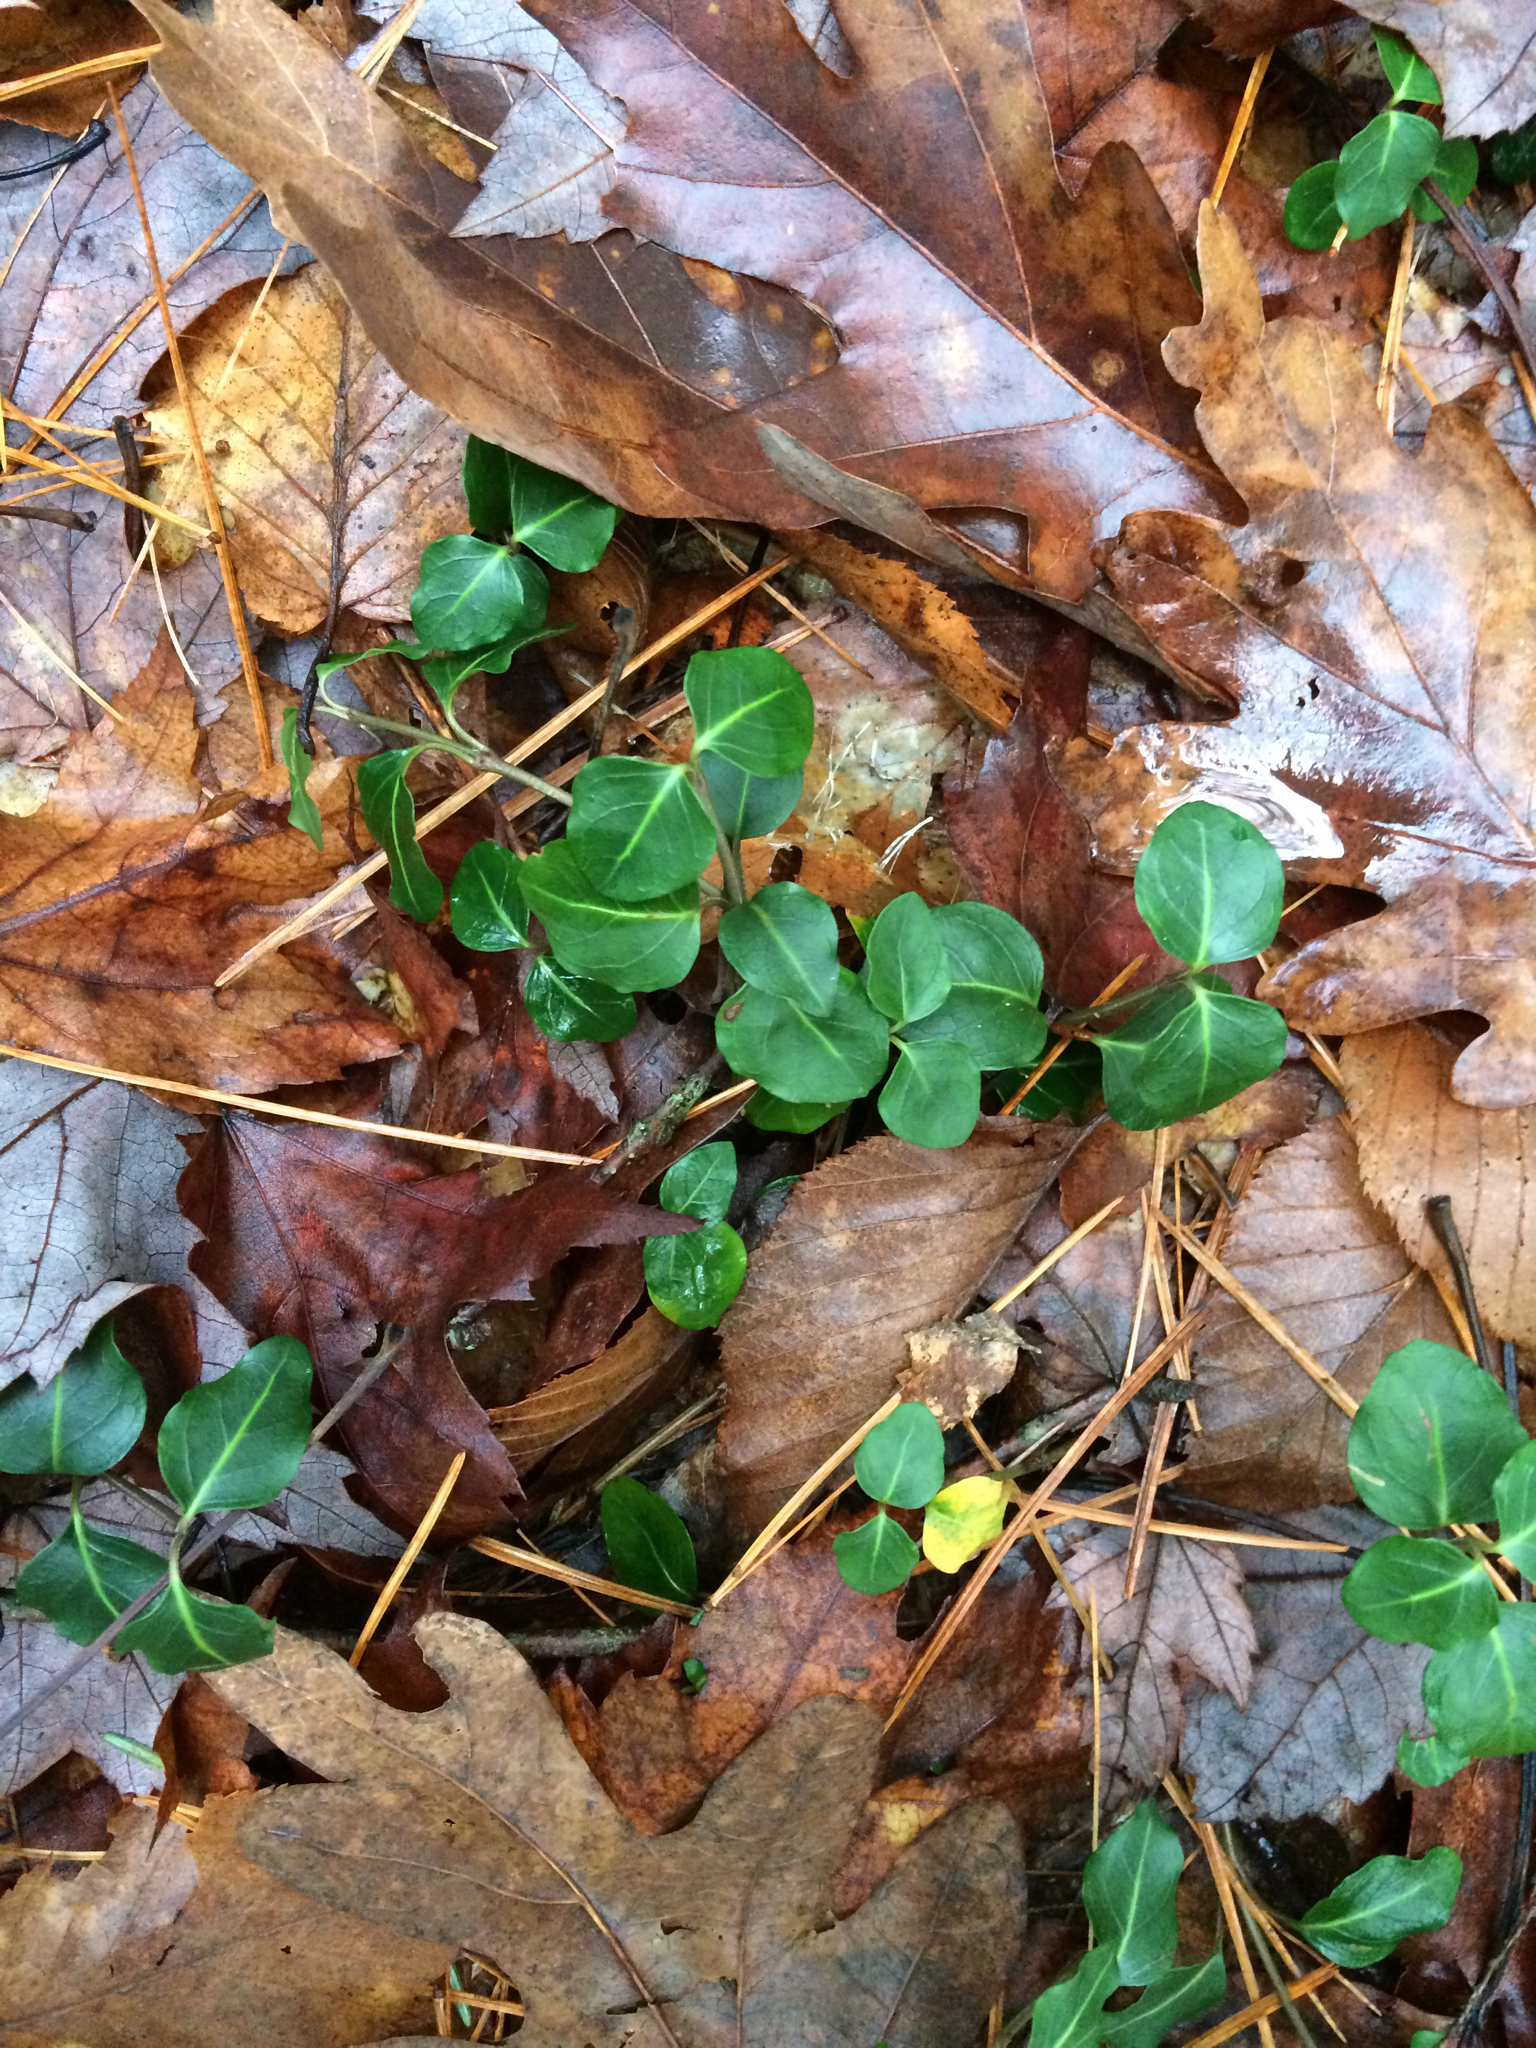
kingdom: Plantae
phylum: Tracheophyta
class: Magnoliopsida
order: Gentianales
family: Rubiaceae
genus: Mitchella
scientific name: Mitchella repens
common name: Partridge-berry
